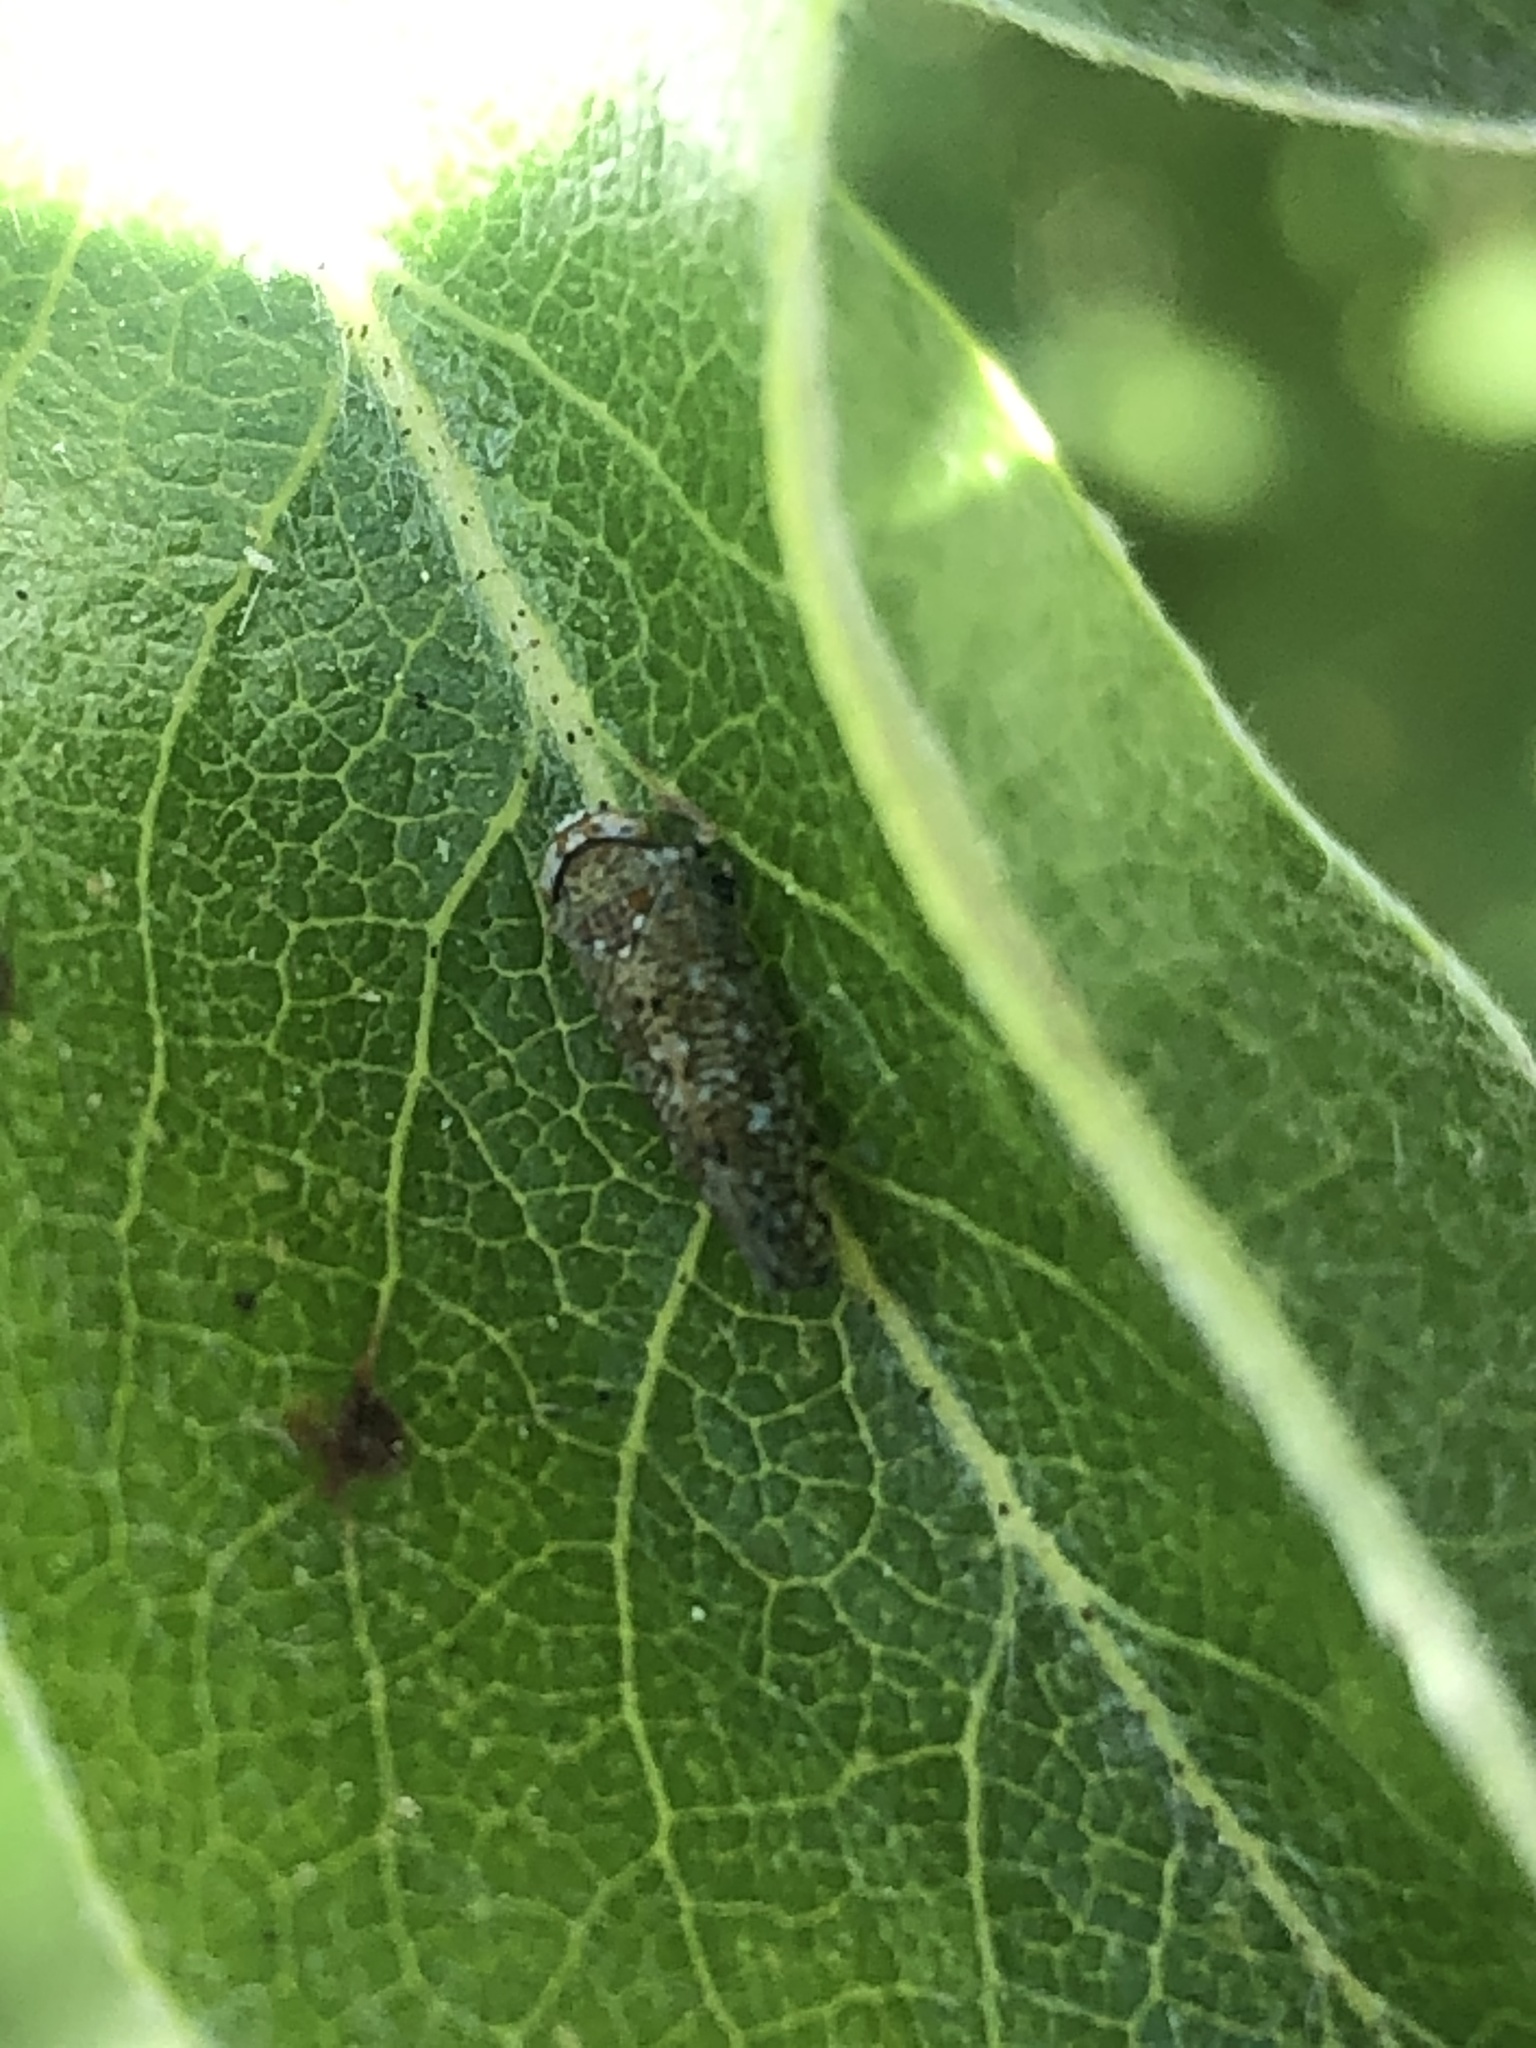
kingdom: Animalia
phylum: Arthropoda
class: Insecta
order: Hemiptera
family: Cicadellidae
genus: Orientus
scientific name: Orientus ishidae
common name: Japanese leafhopper
